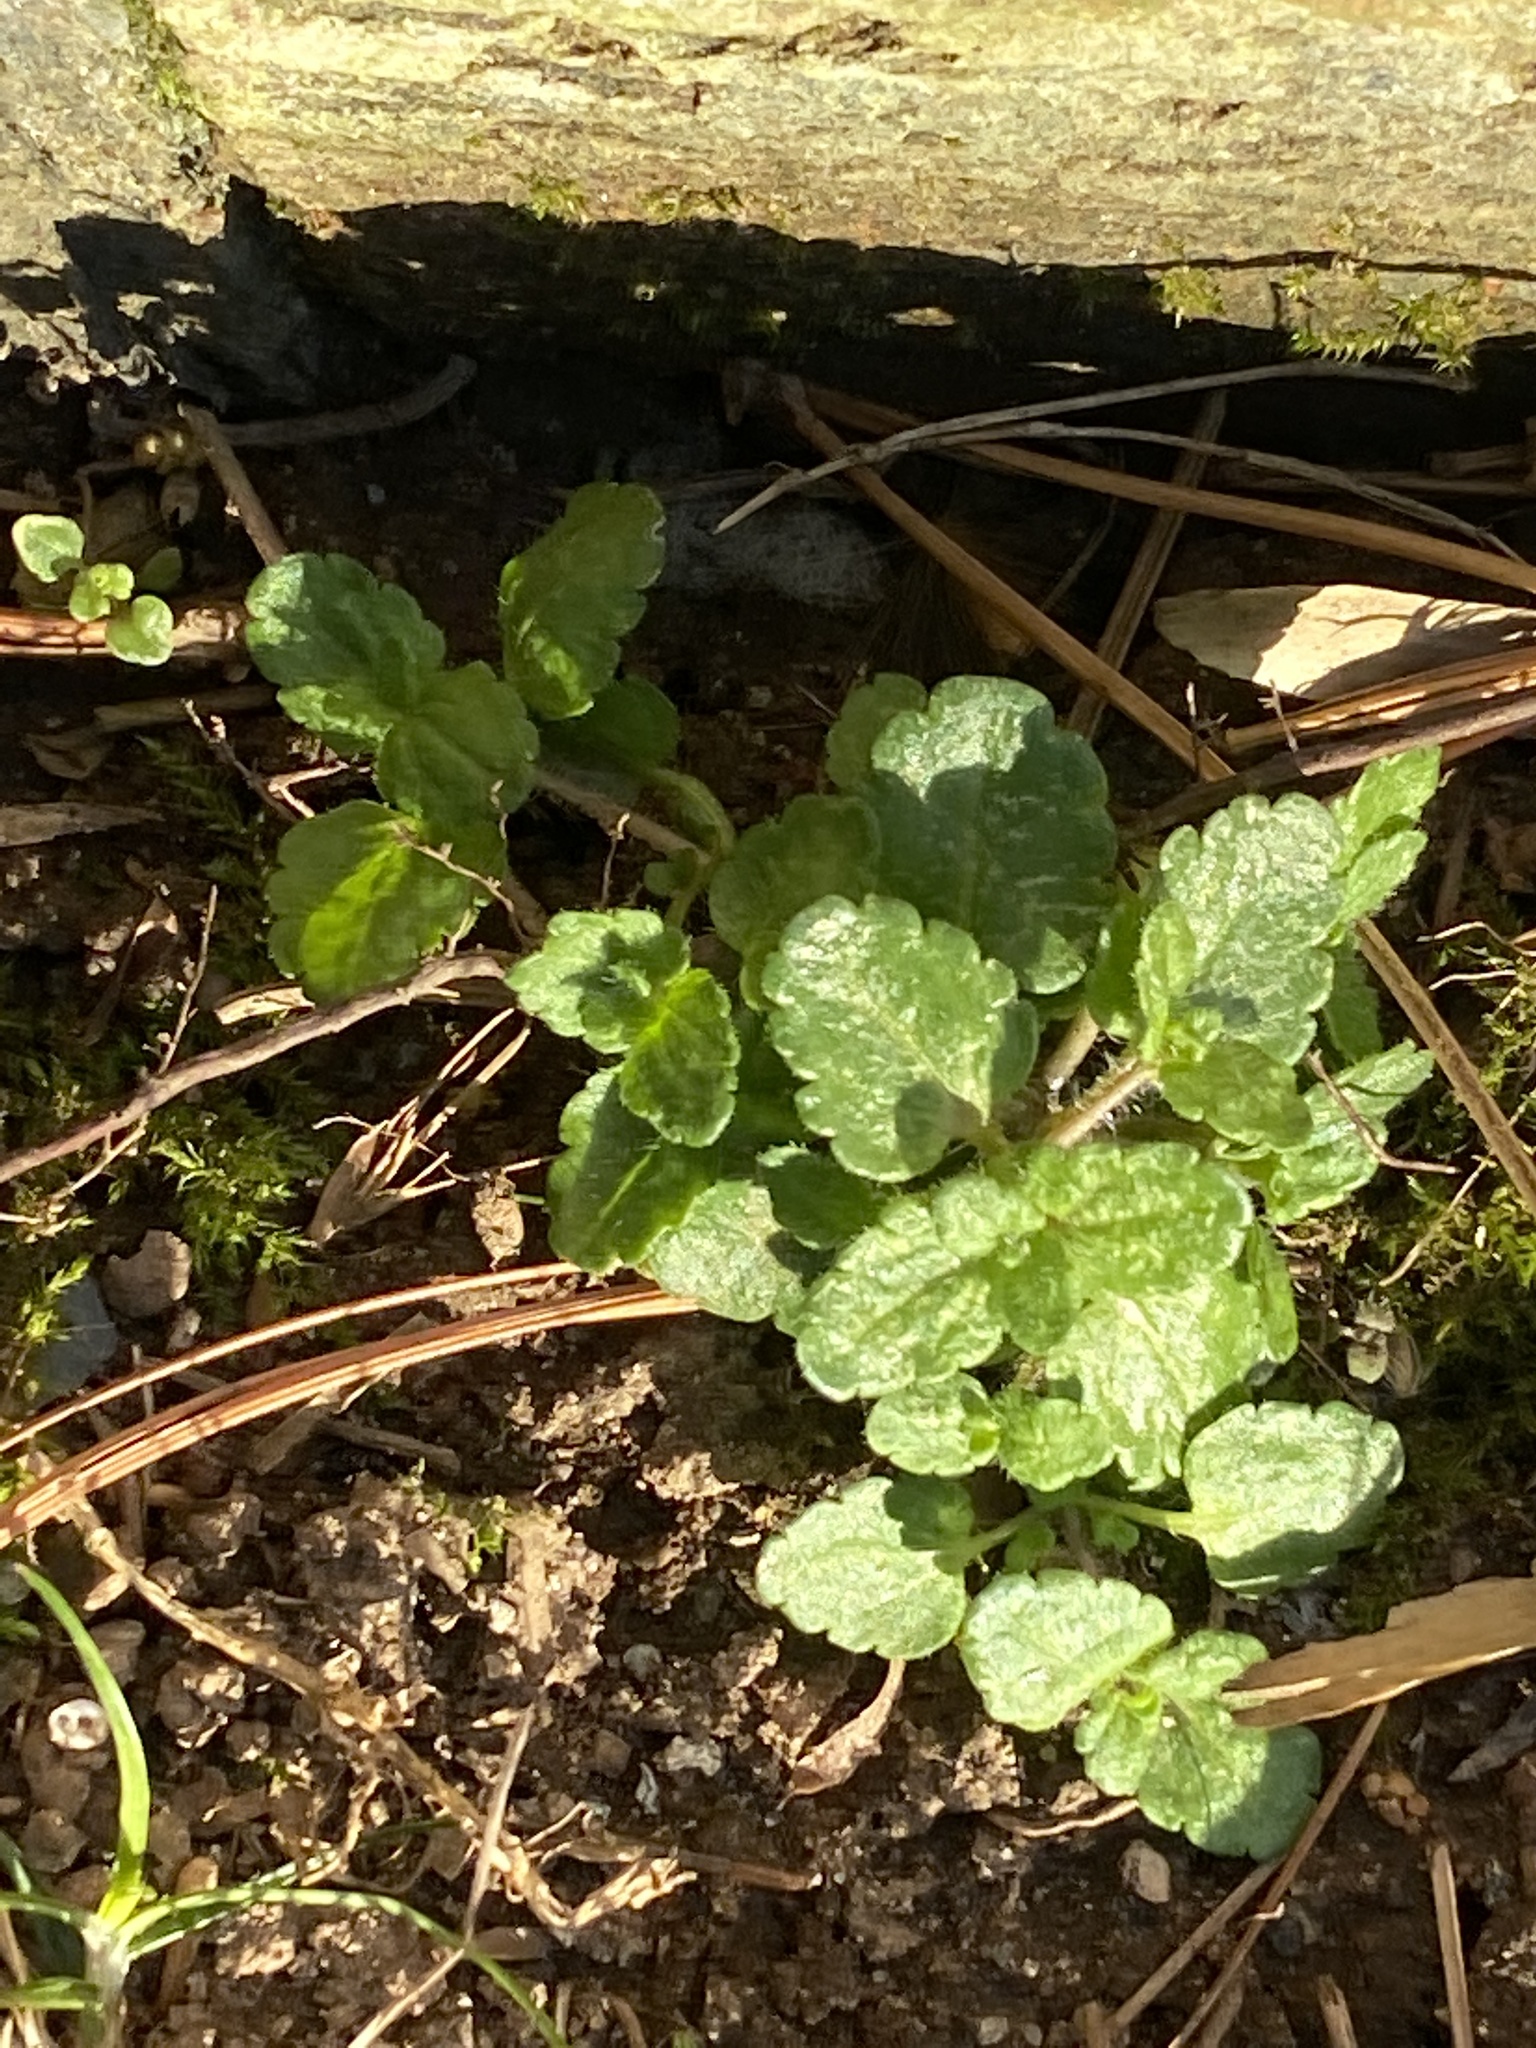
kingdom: Plantae
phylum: Tracheophyta
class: Magnoliopsida
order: Lamiales
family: Plantaginaceae
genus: Veronica
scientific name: Veronica arvensis
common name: Corn speedwell
